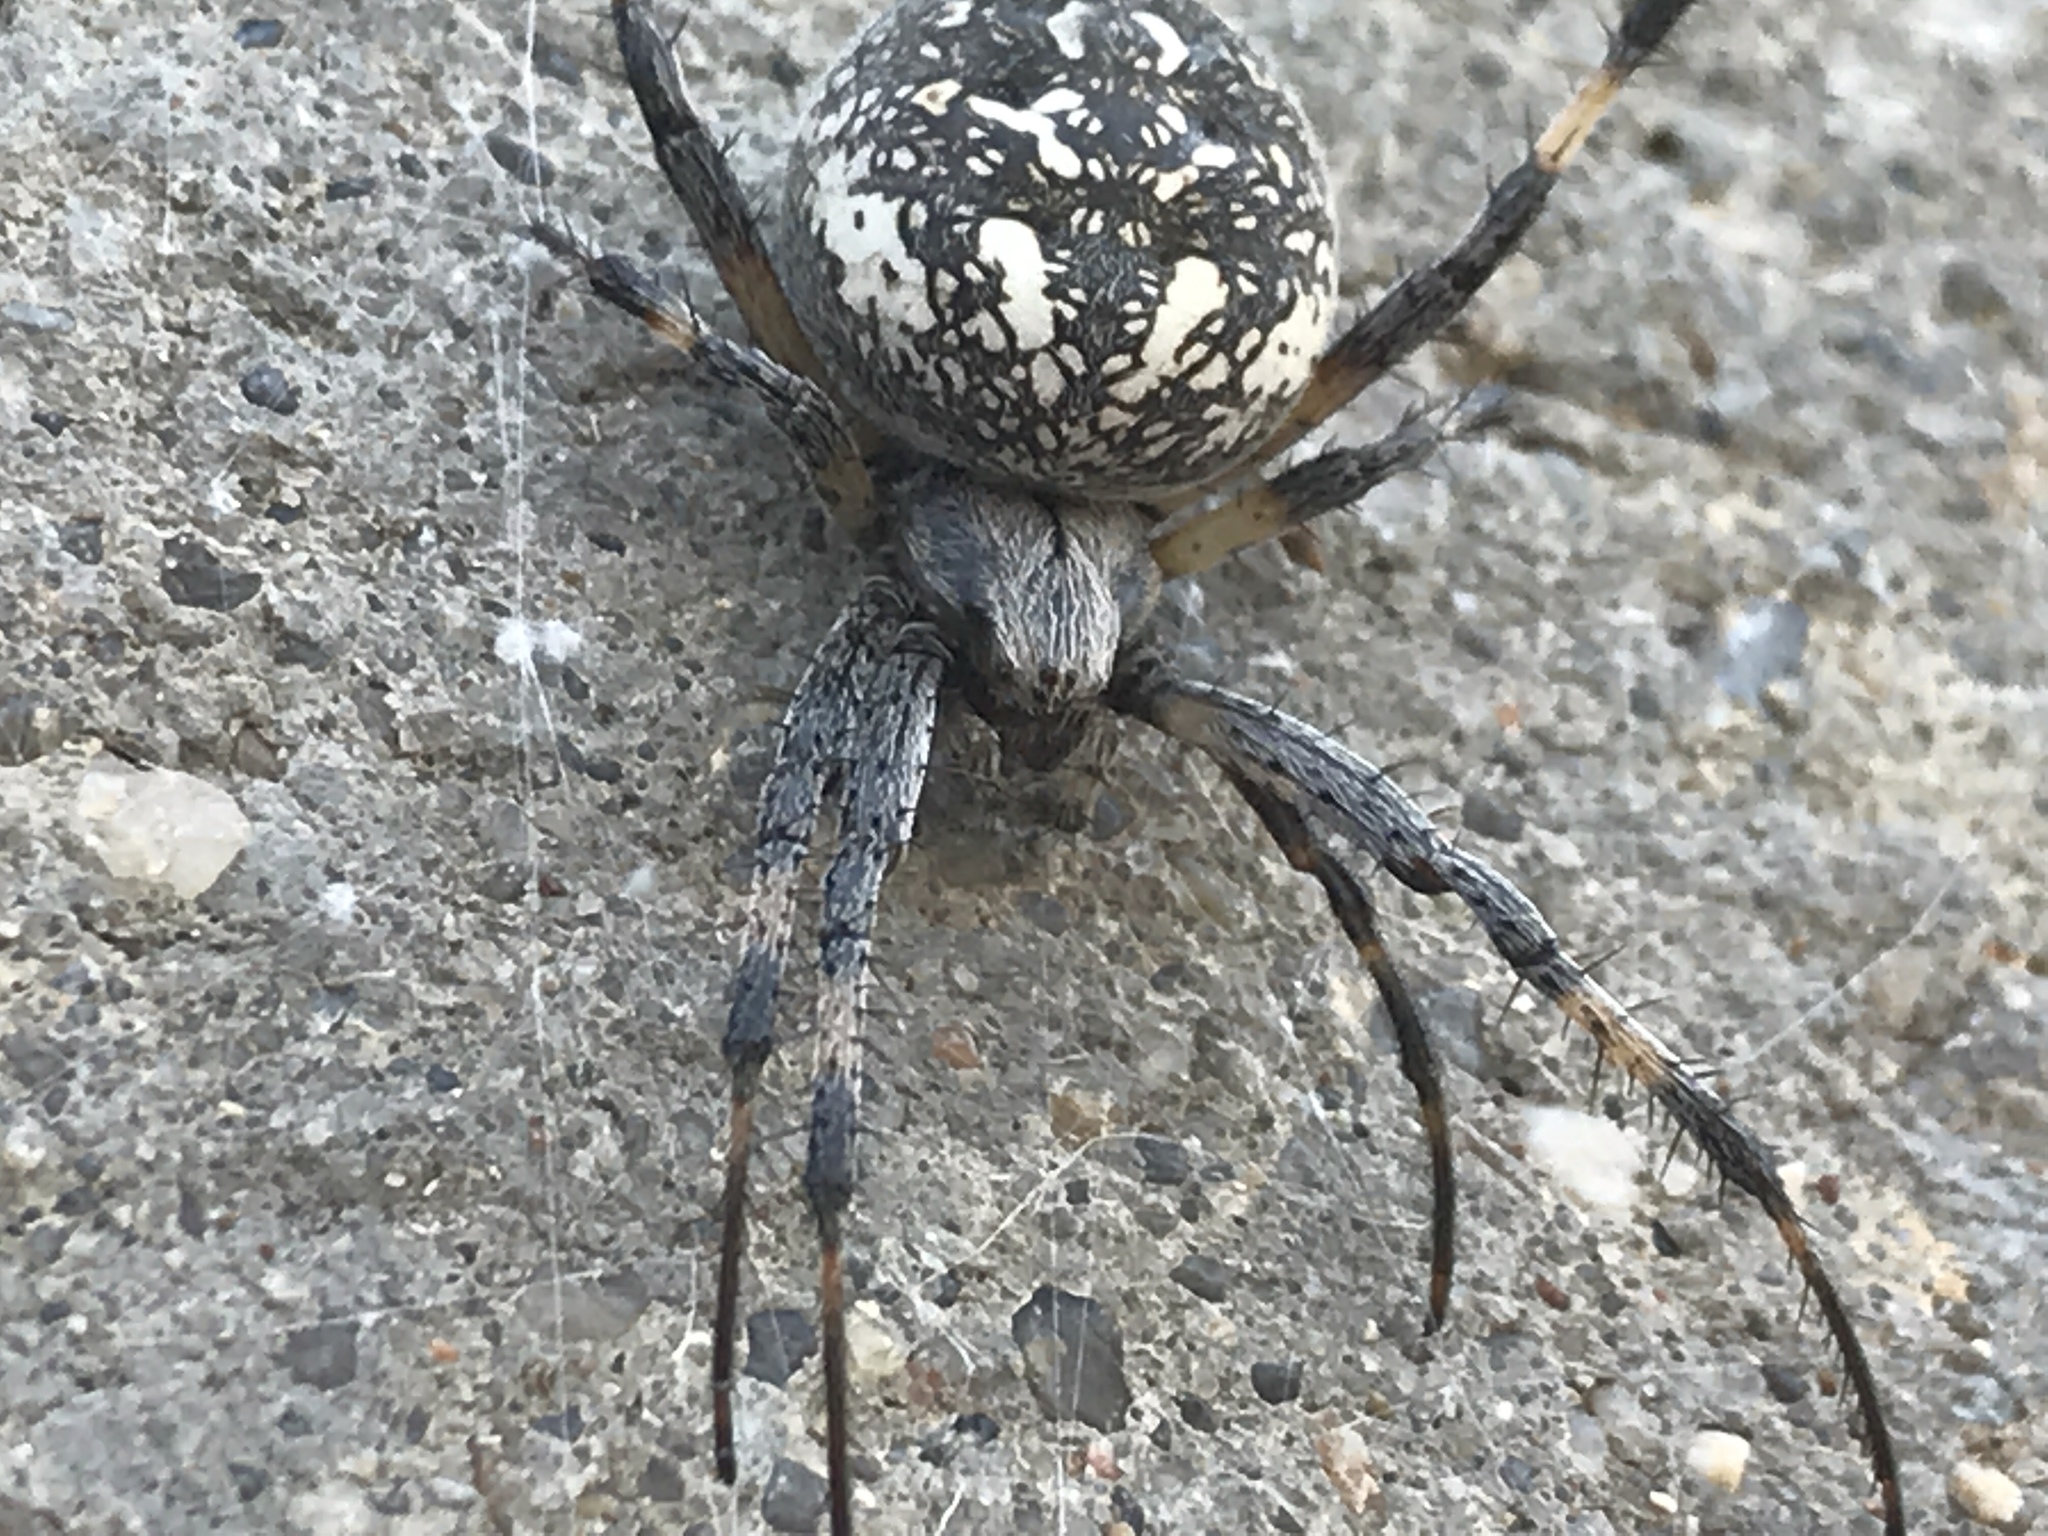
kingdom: Animalia
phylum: Arthropoda
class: Arachnida
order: Araneae
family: Araneidae
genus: Neoscona
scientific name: Neoscona oaxacensis
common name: Orb weavers
